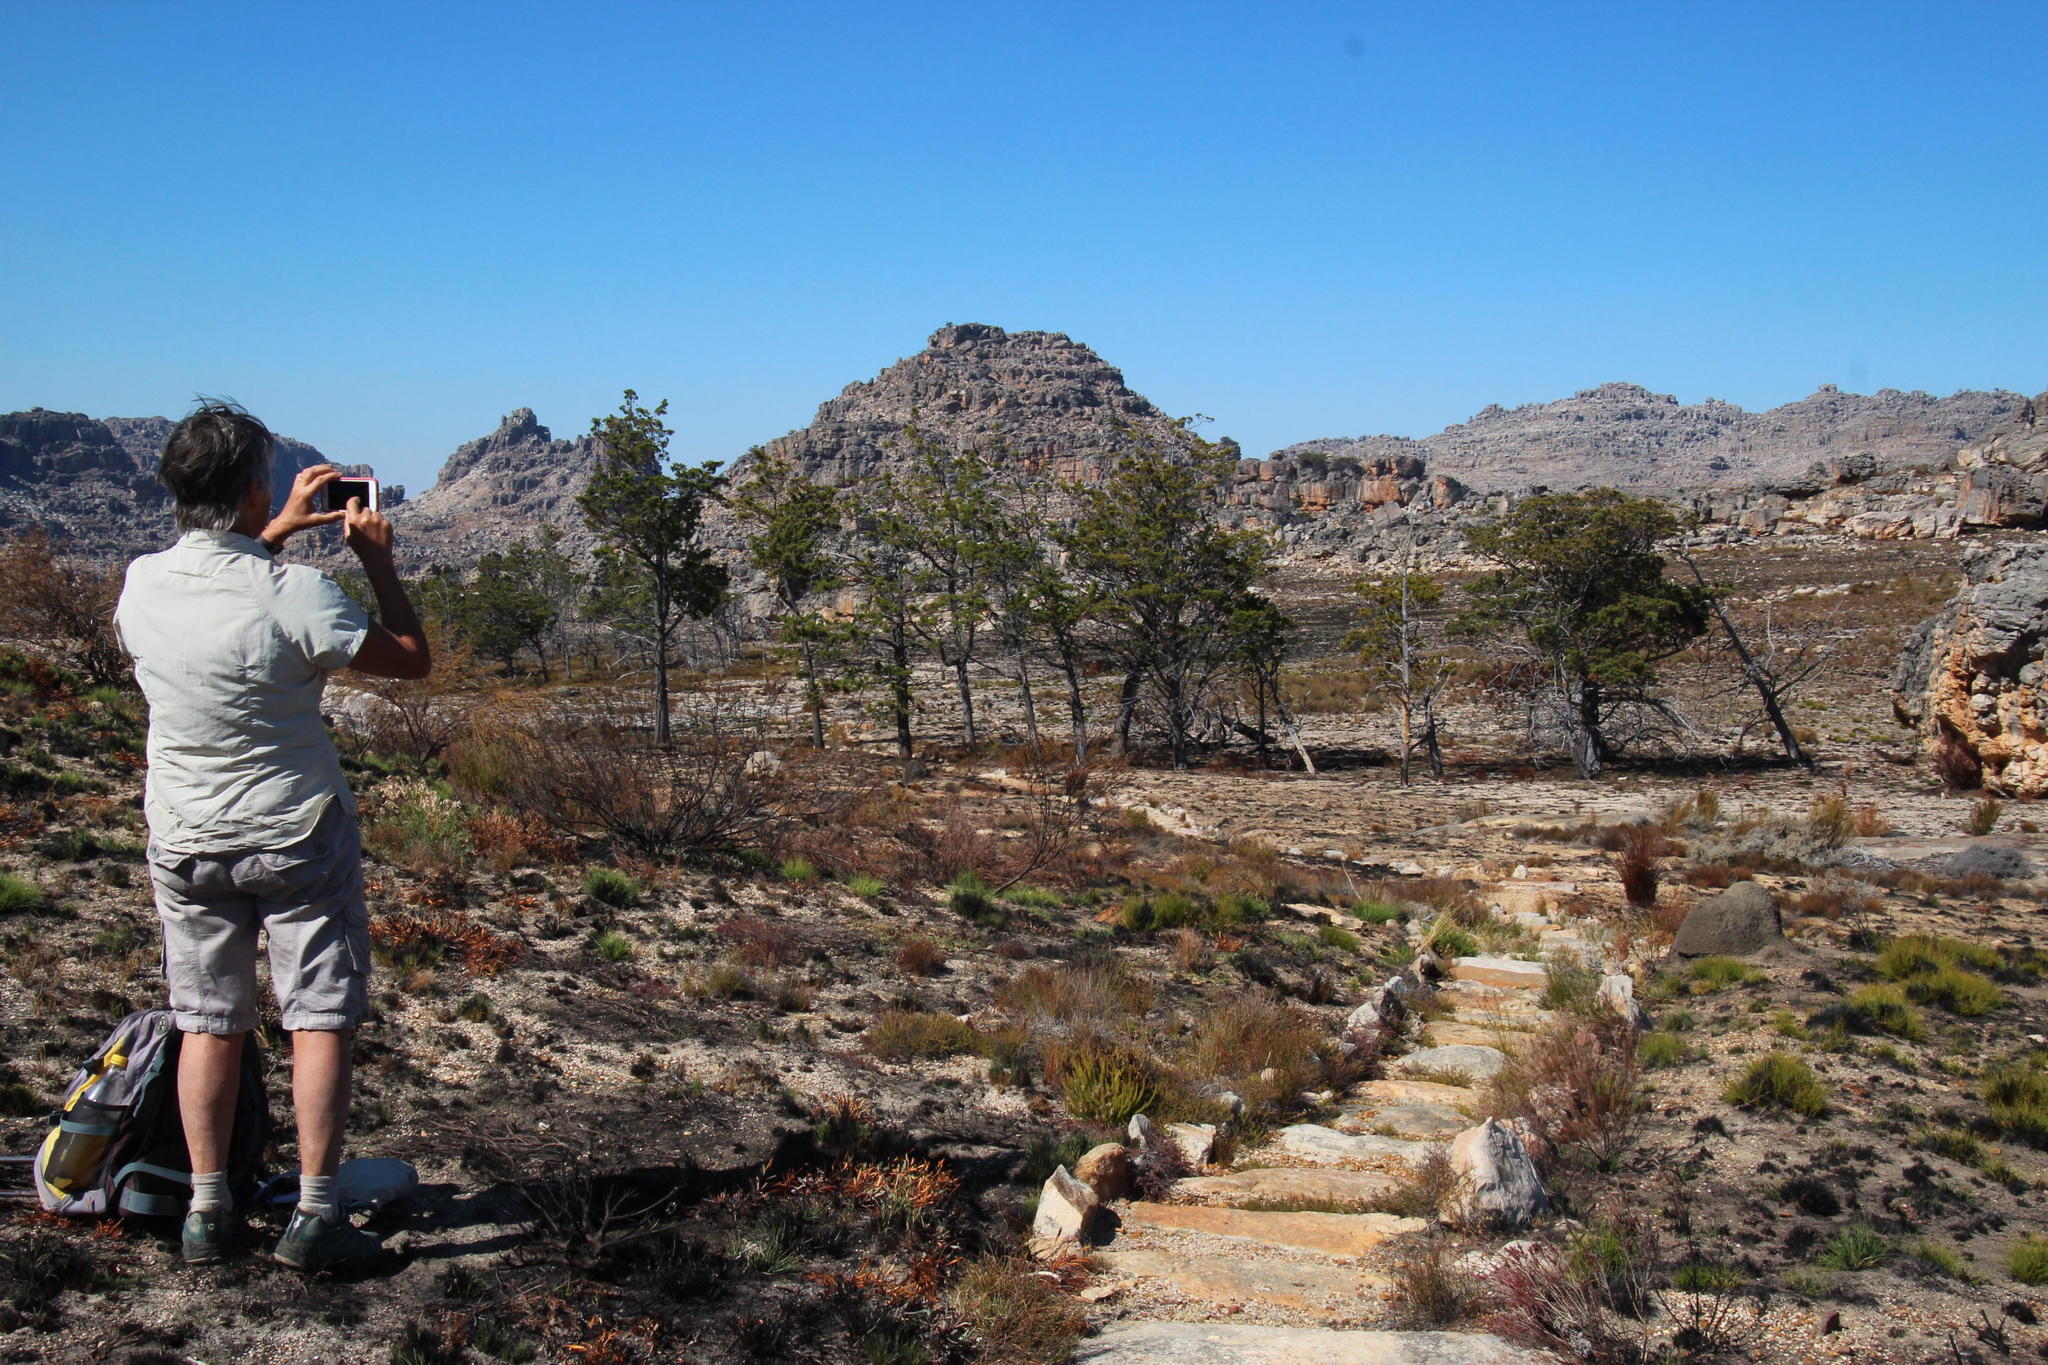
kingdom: Plantae
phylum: Tracheophyta
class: Pinopsida
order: Pinales
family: Cupressaceae
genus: Widdringtonia
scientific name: Widdringtonia nodiflora
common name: Cape cypress
